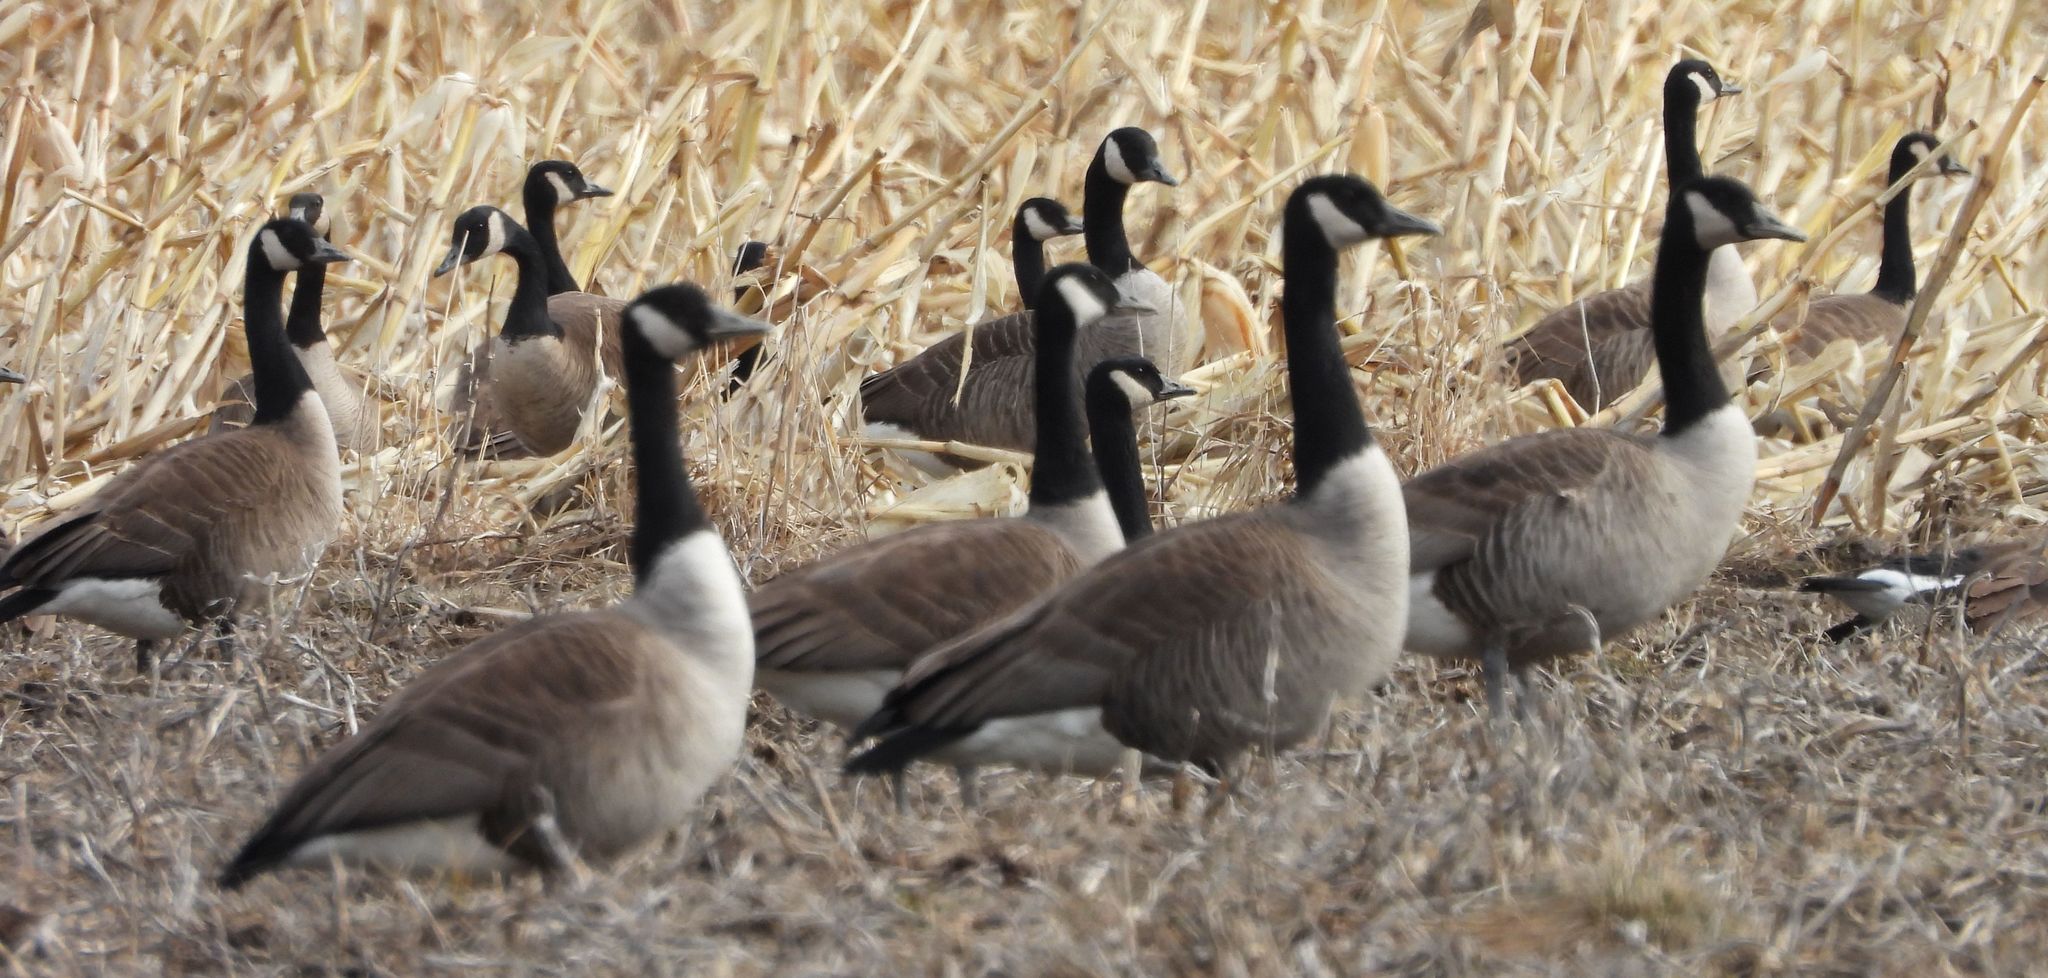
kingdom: Animalia
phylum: Chordata
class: Aves
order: Anseriformes
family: Anatidae
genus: Branta
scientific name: Branta canadensis
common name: Canada goose
